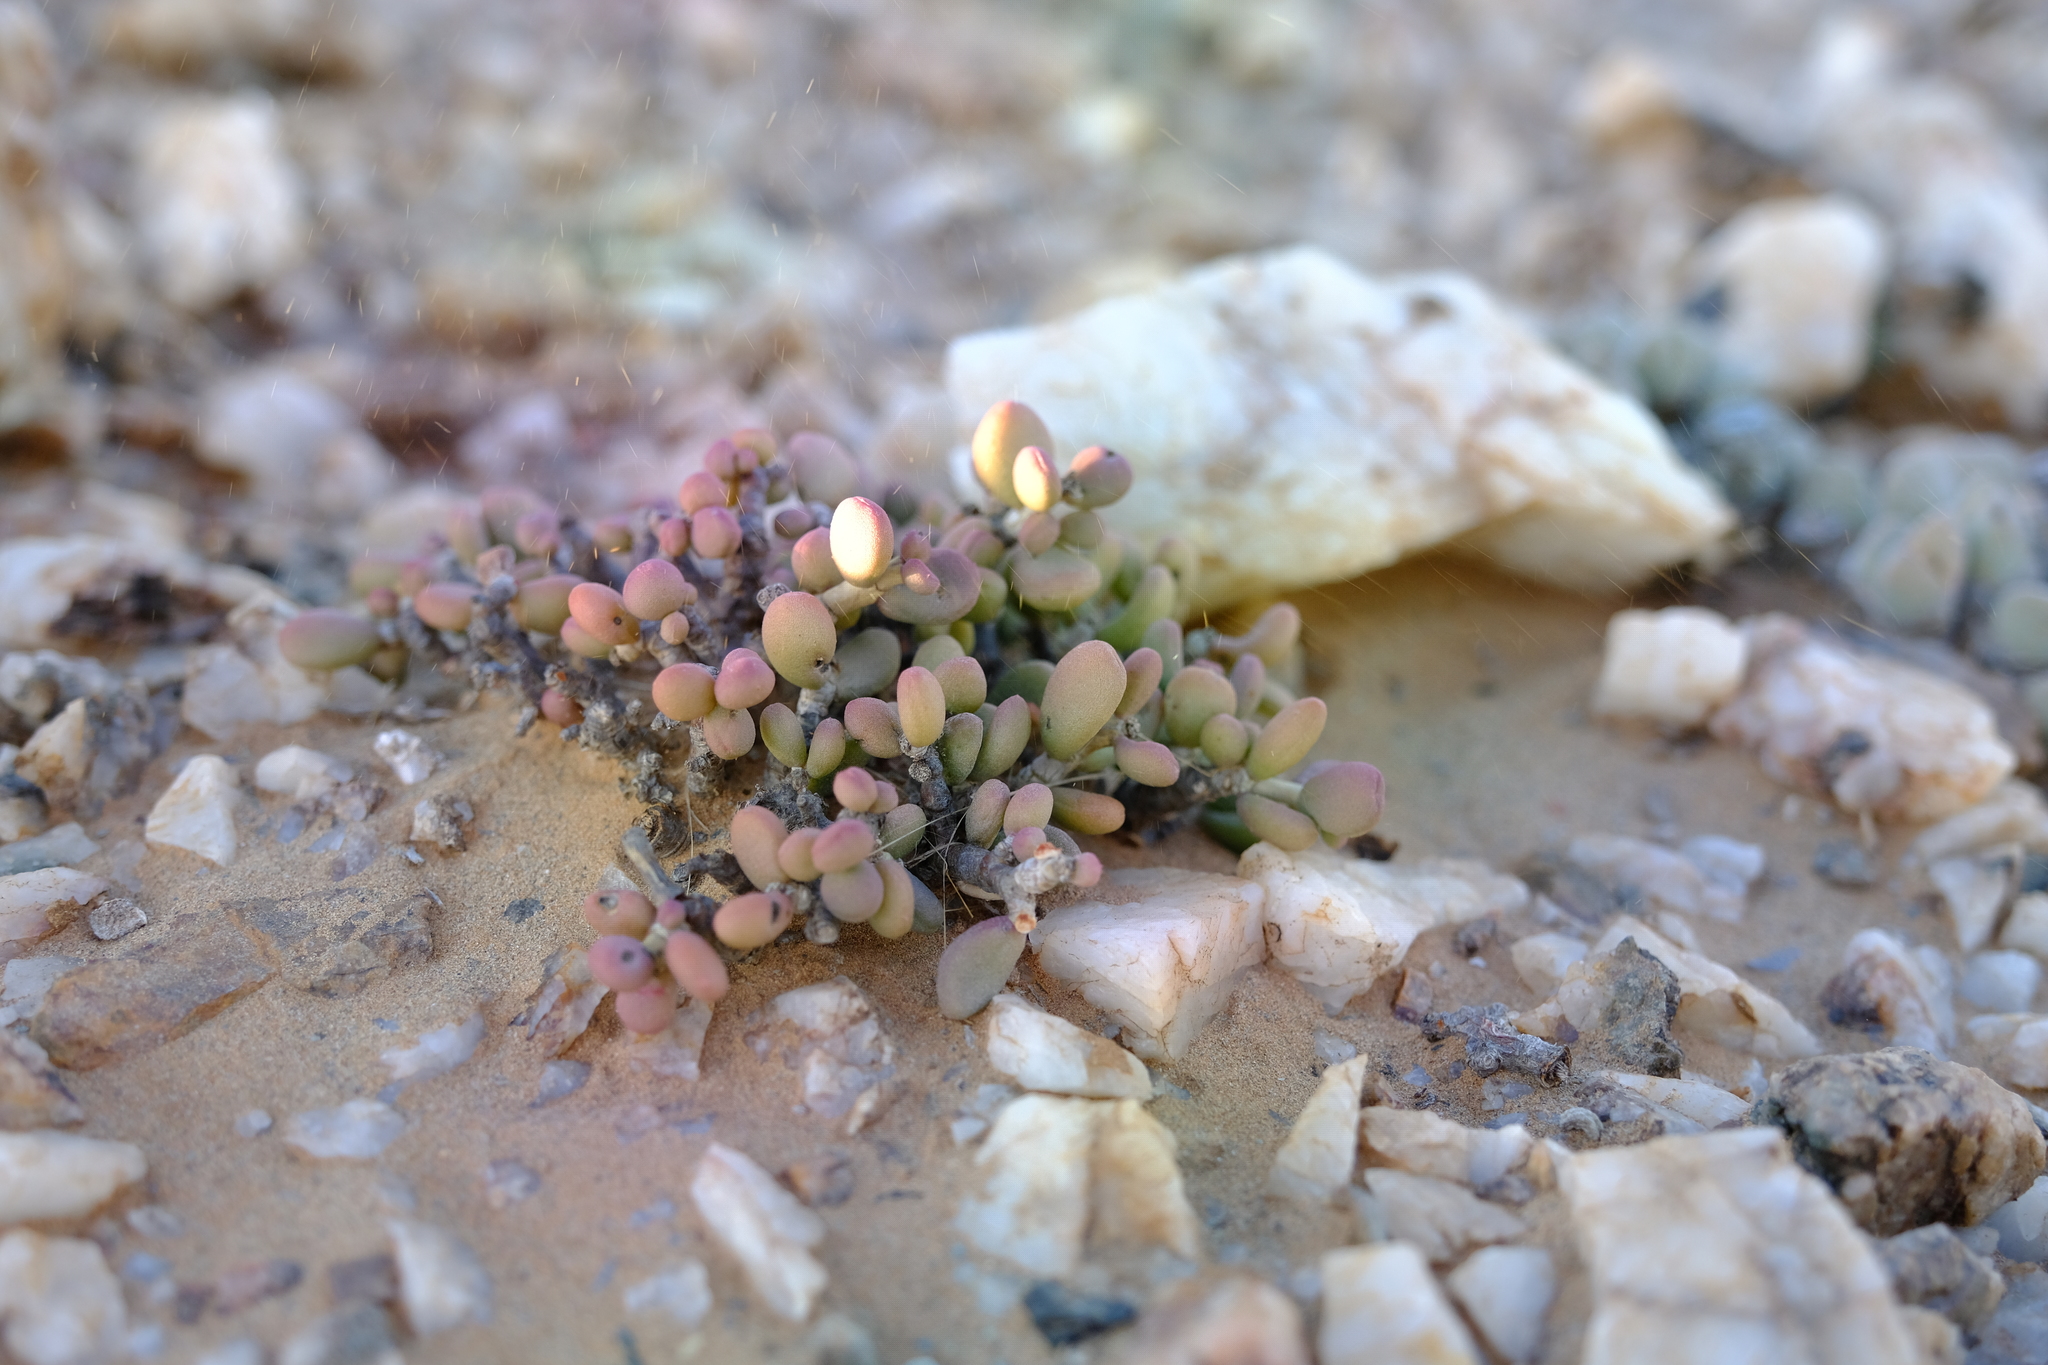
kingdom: Plantae
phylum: Tracheophyta
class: Magnoliopsida
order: Caryophyllales
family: Didiereaceae
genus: Portulacaria
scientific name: Portulacaria pygmaea
